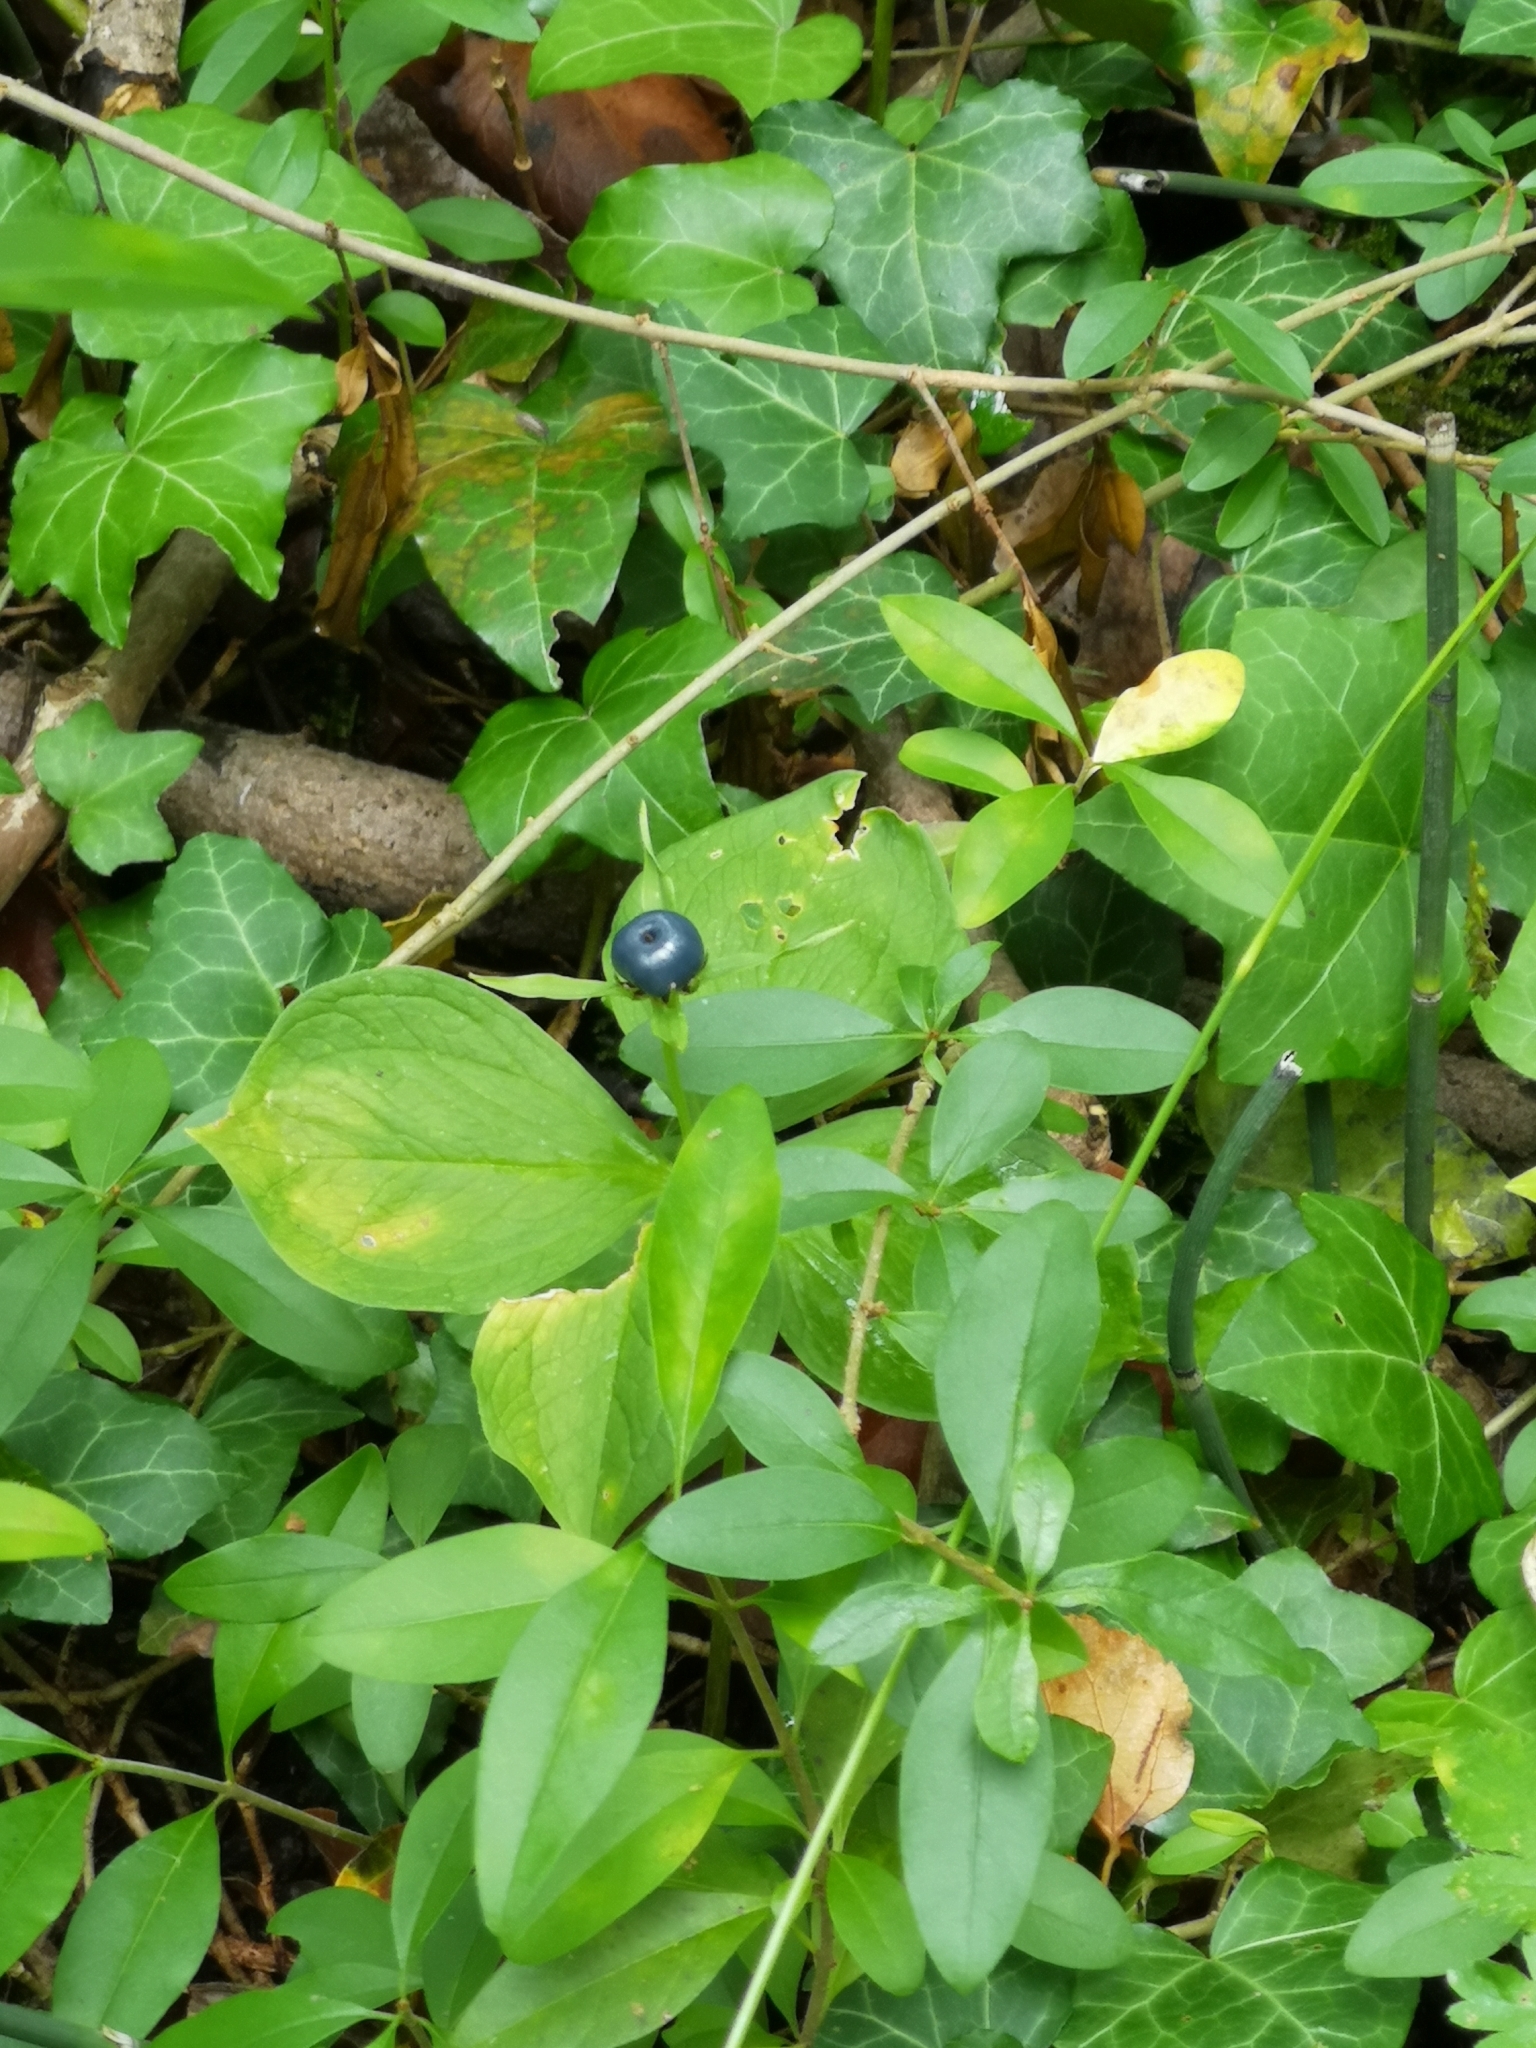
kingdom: Plantae
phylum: Tracheophyta
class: Liliopsida
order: Liliales
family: Melanthiaceae
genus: Paris
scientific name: Paris quadrifolia
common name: Herb-paris
